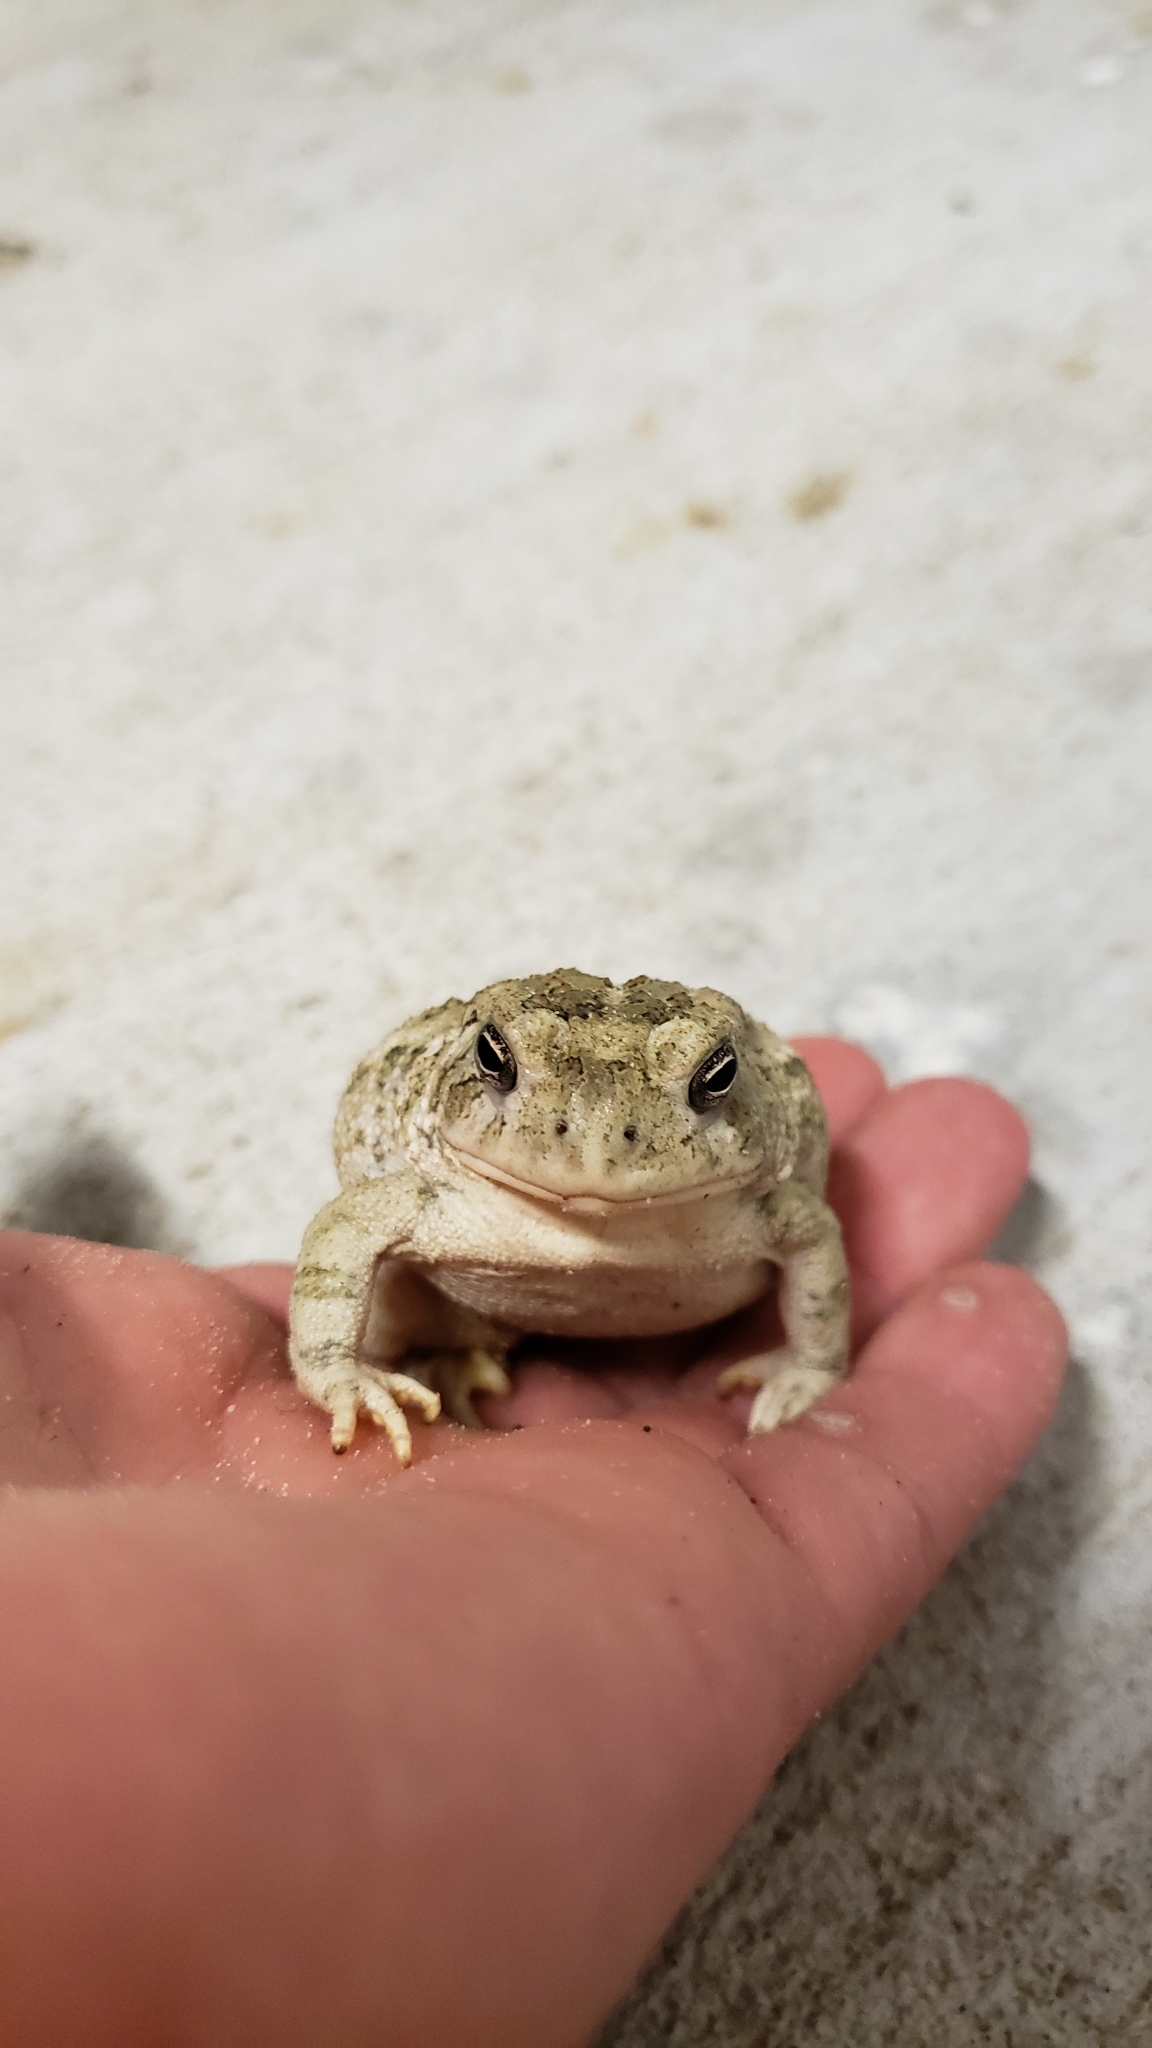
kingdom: Animalia
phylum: Chordata
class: Amphibia
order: Anura
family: Bufonidae
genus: Anaxyrus
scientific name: Anaxyrus woodhousii
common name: Woodhouse's toad
